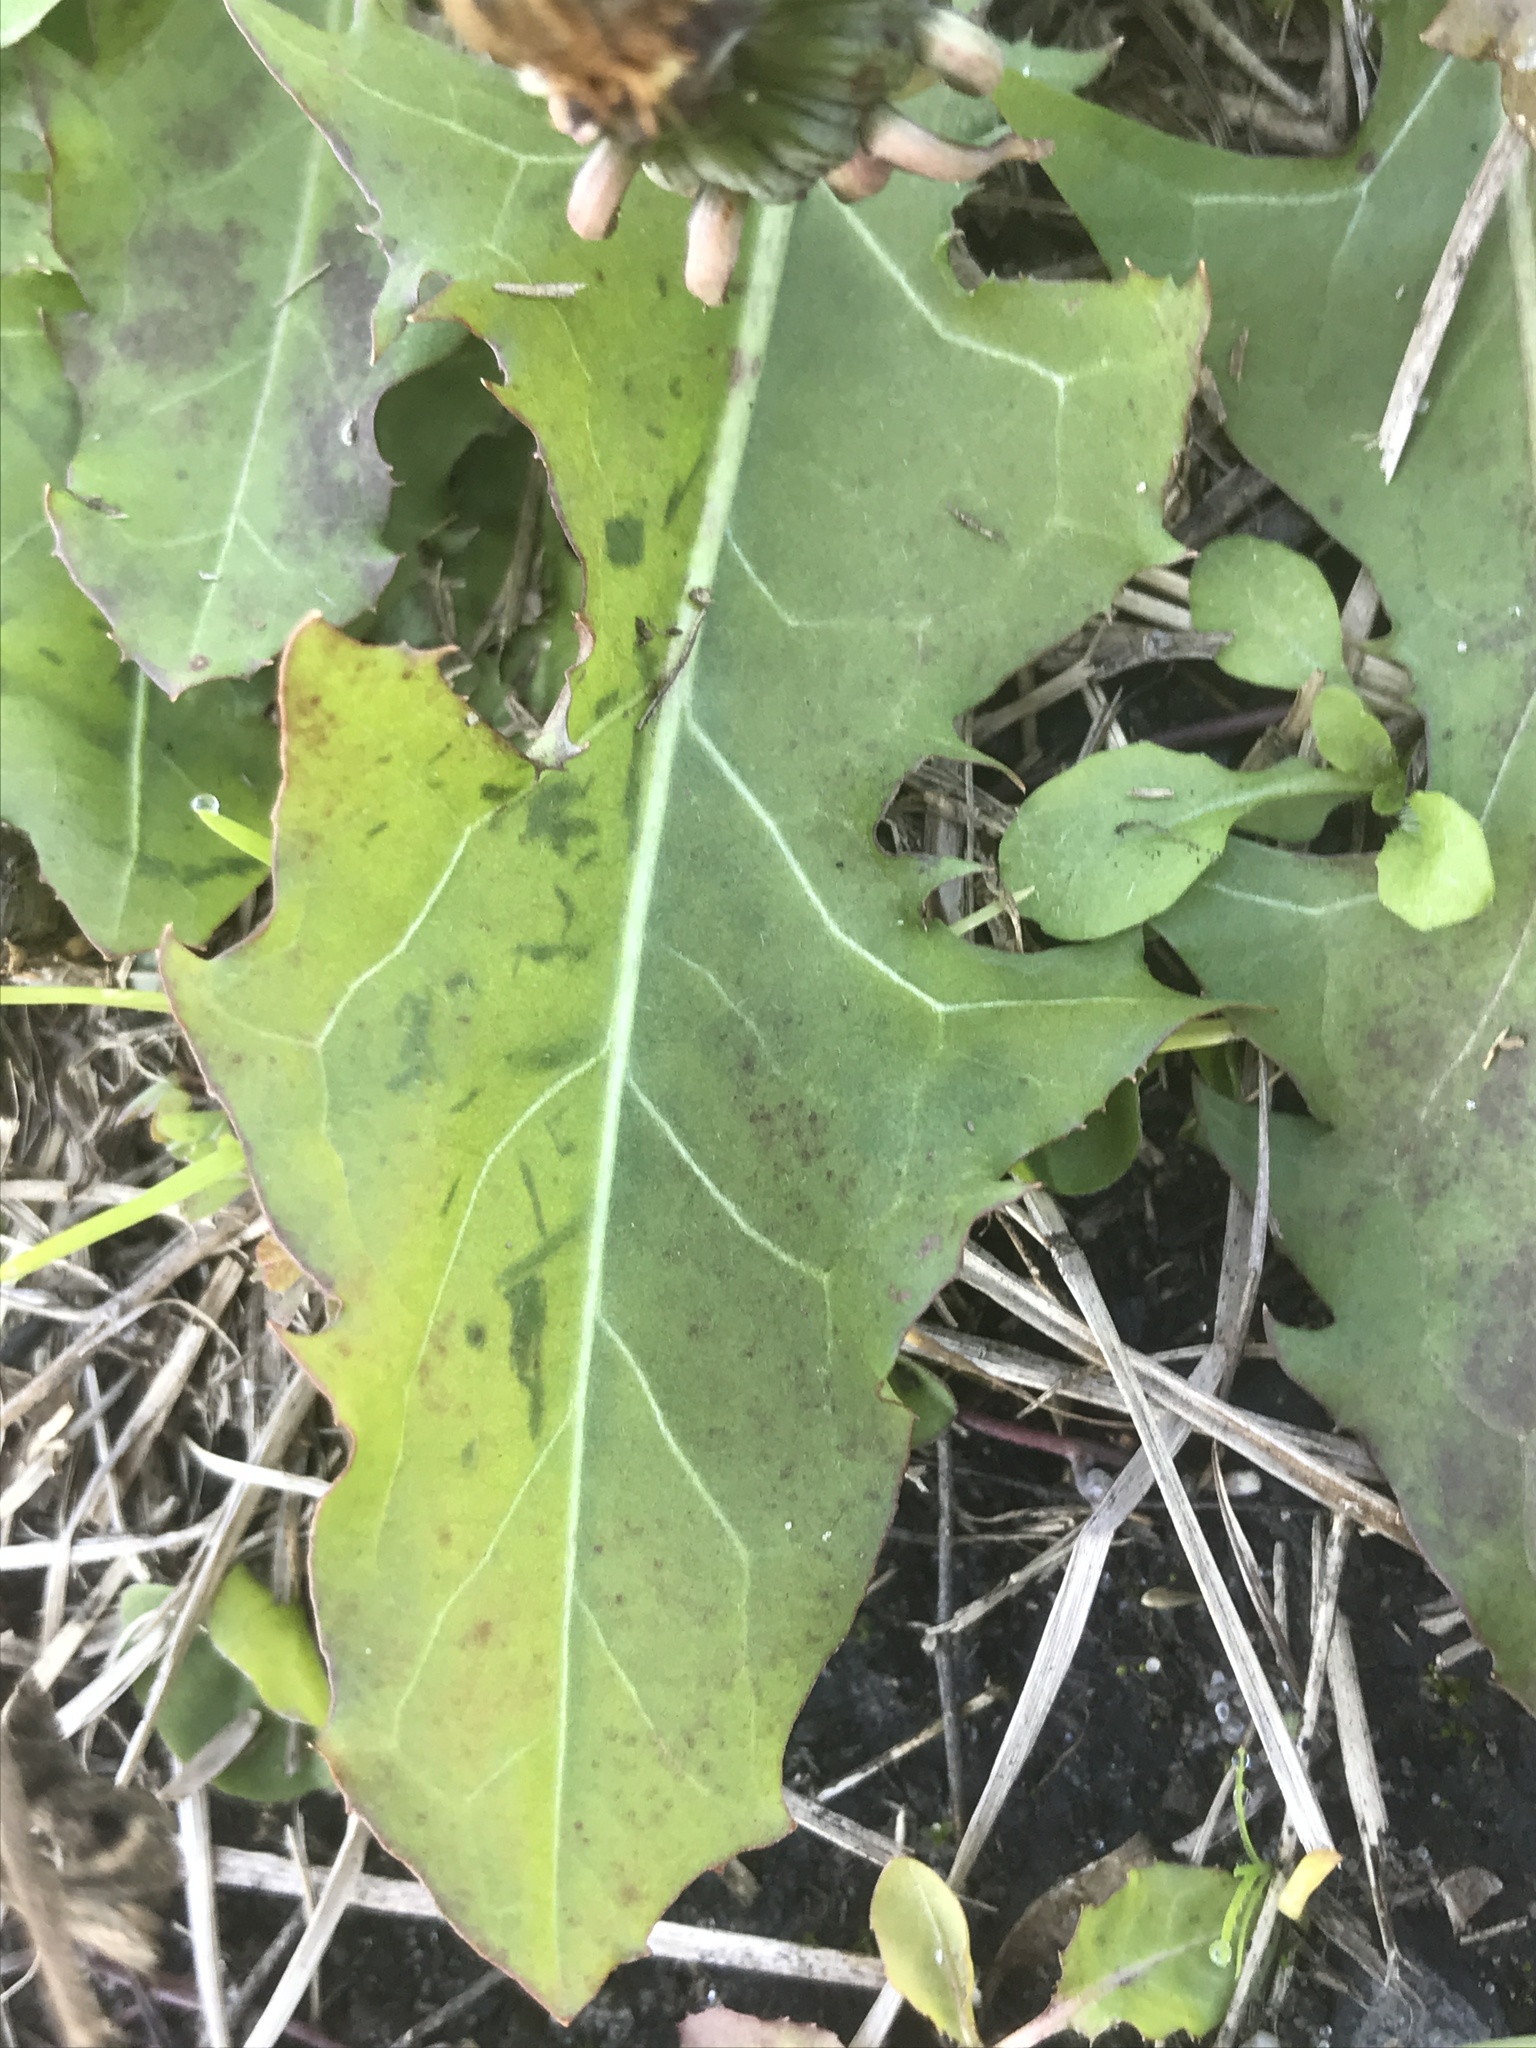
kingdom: Plantae
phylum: Tracheophyta
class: Magnoliopsida
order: Asterales
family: Asteraceae
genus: Taraxacum
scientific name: Taraxacum officinale
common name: Common dandelion
